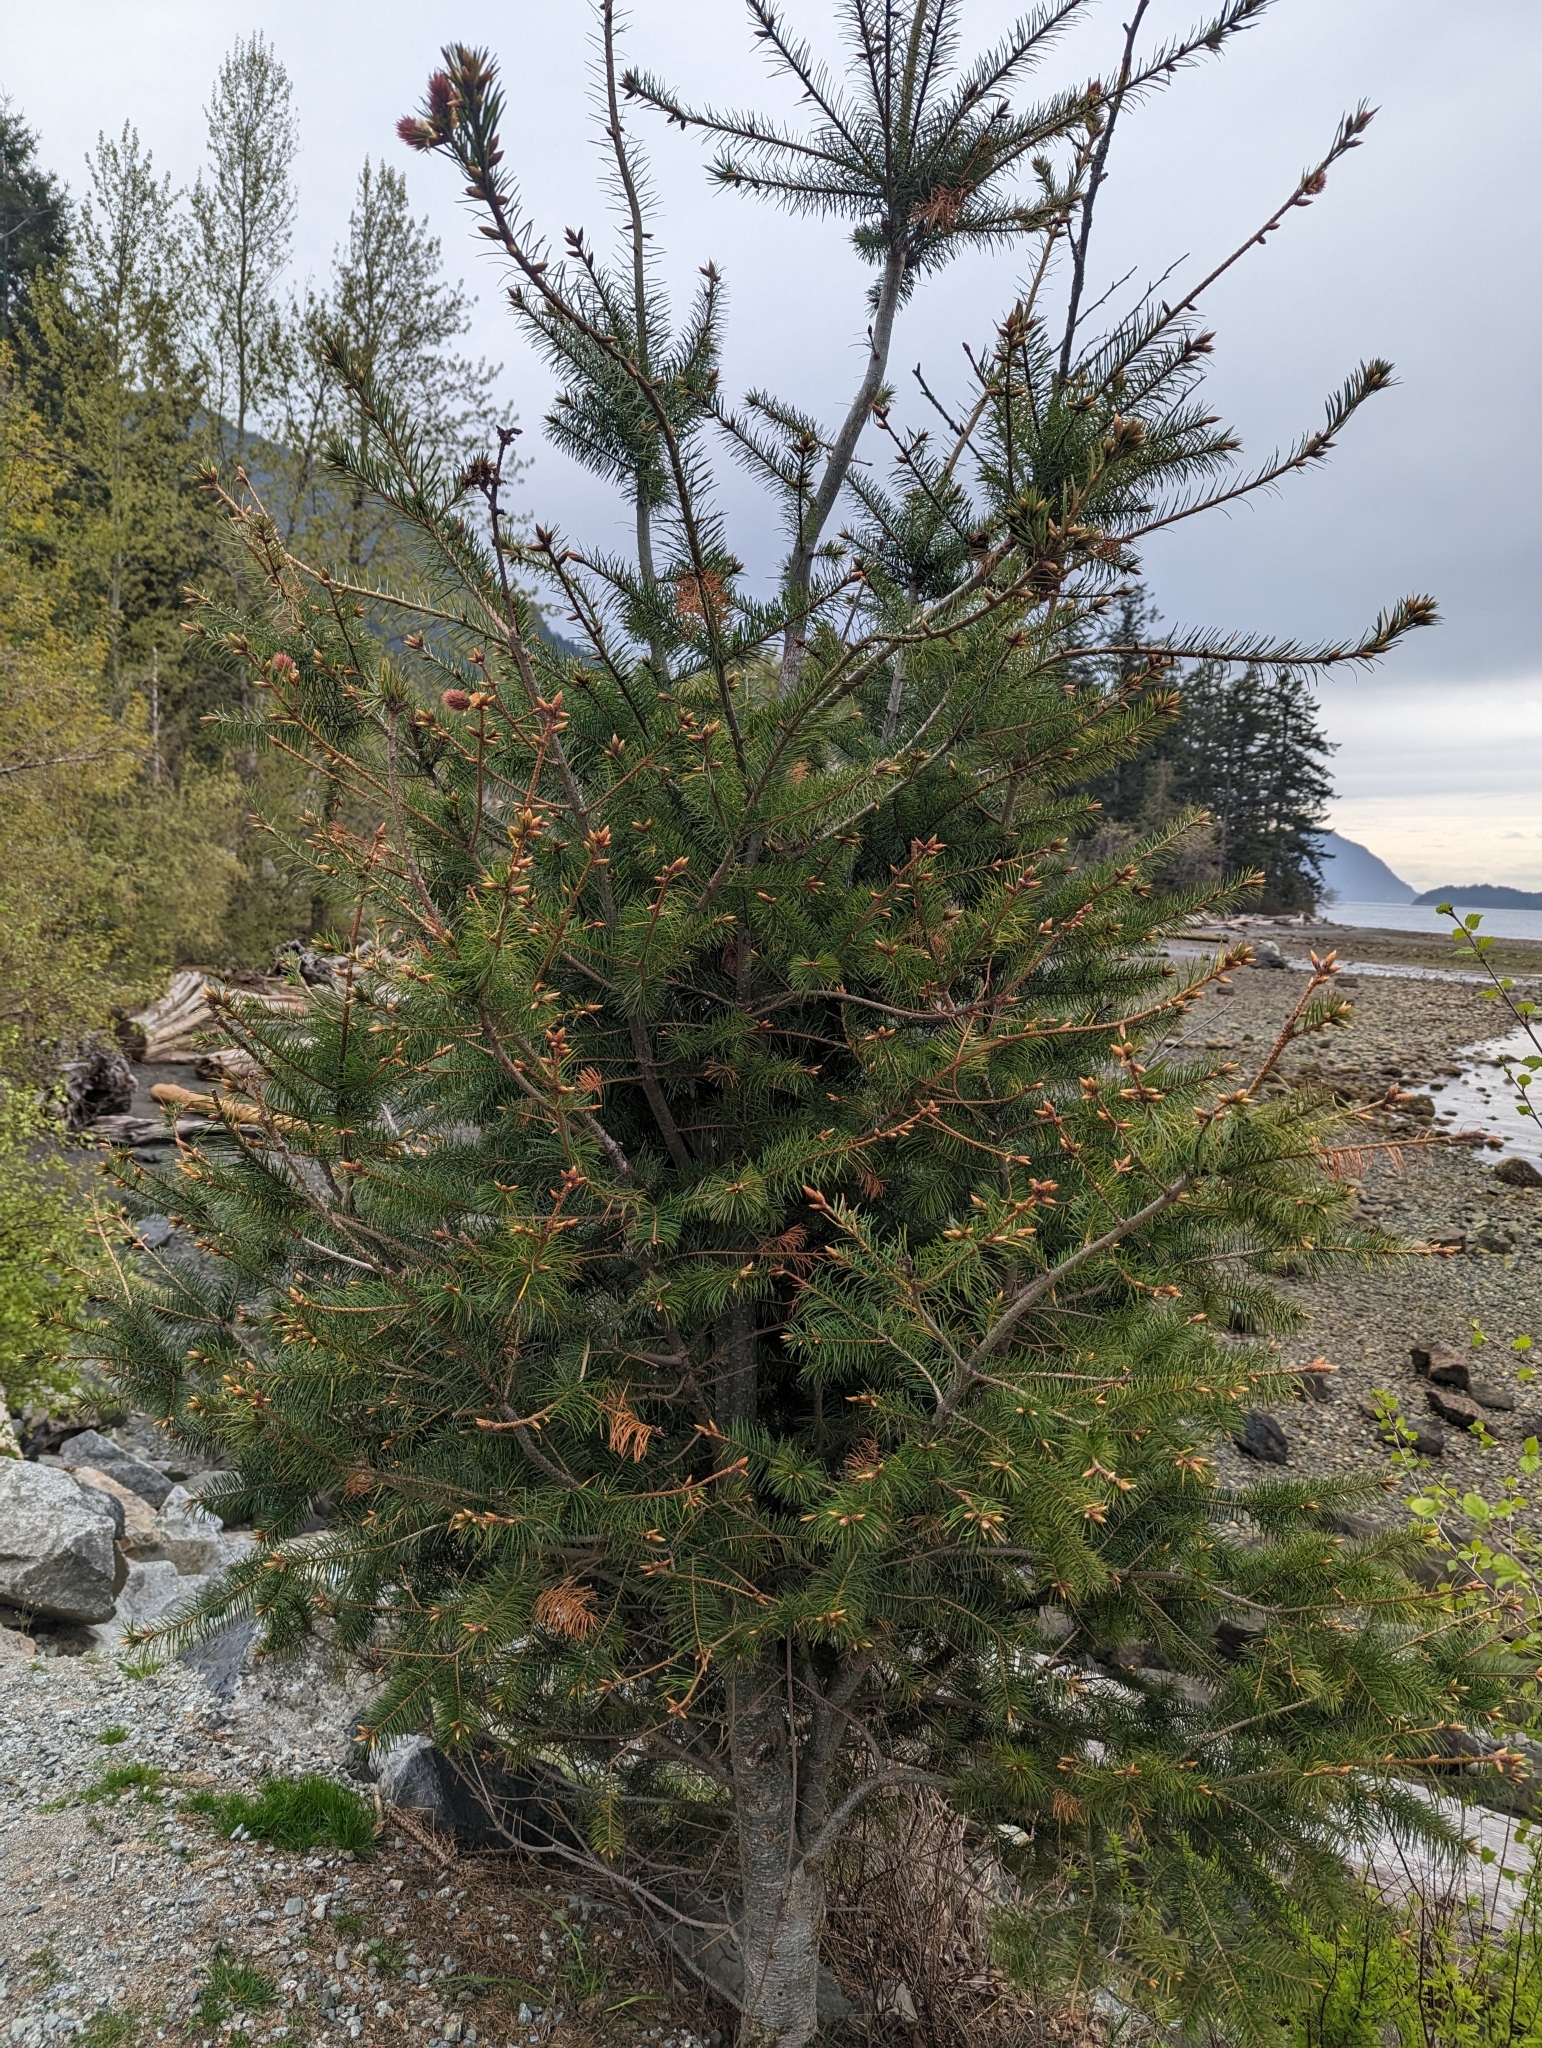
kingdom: Plantae
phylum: Tracheophyta
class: Pinopsida
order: Pinales
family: Pinaceae
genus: Pseudotsuga
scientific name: Pseudotsuga menziesii
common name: Douglas fir
